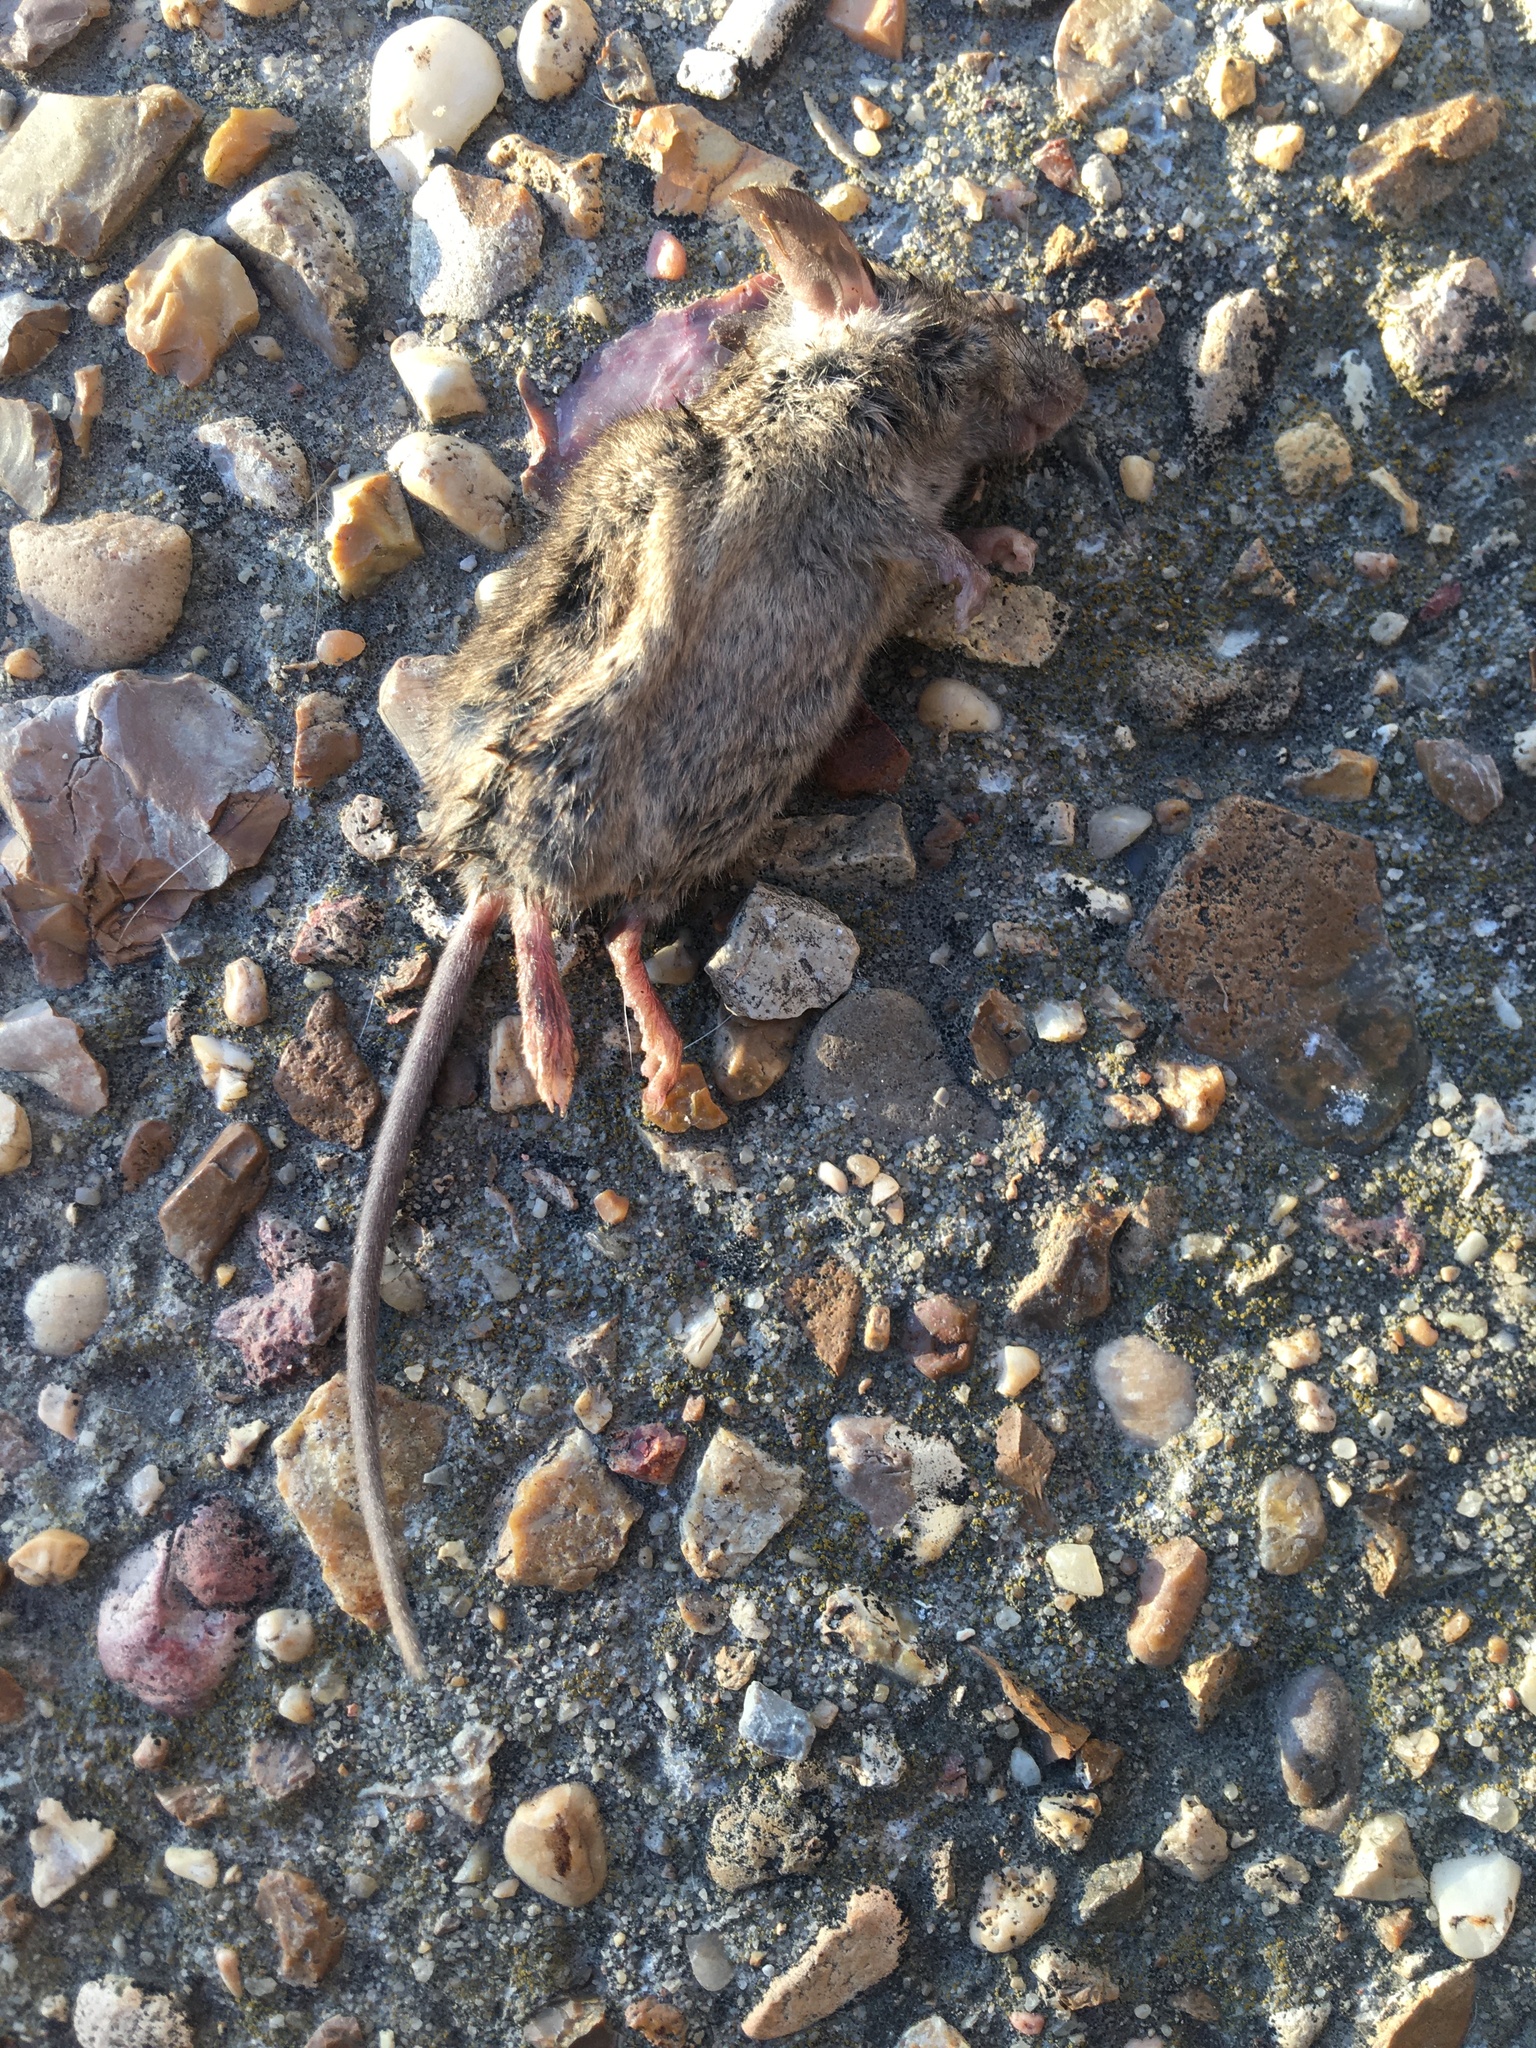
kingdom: Animalia
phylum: Chordata
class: Mammalia
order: Rodentia
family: Muridae
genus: Mus
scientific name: Mus musculus
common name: House mouse
